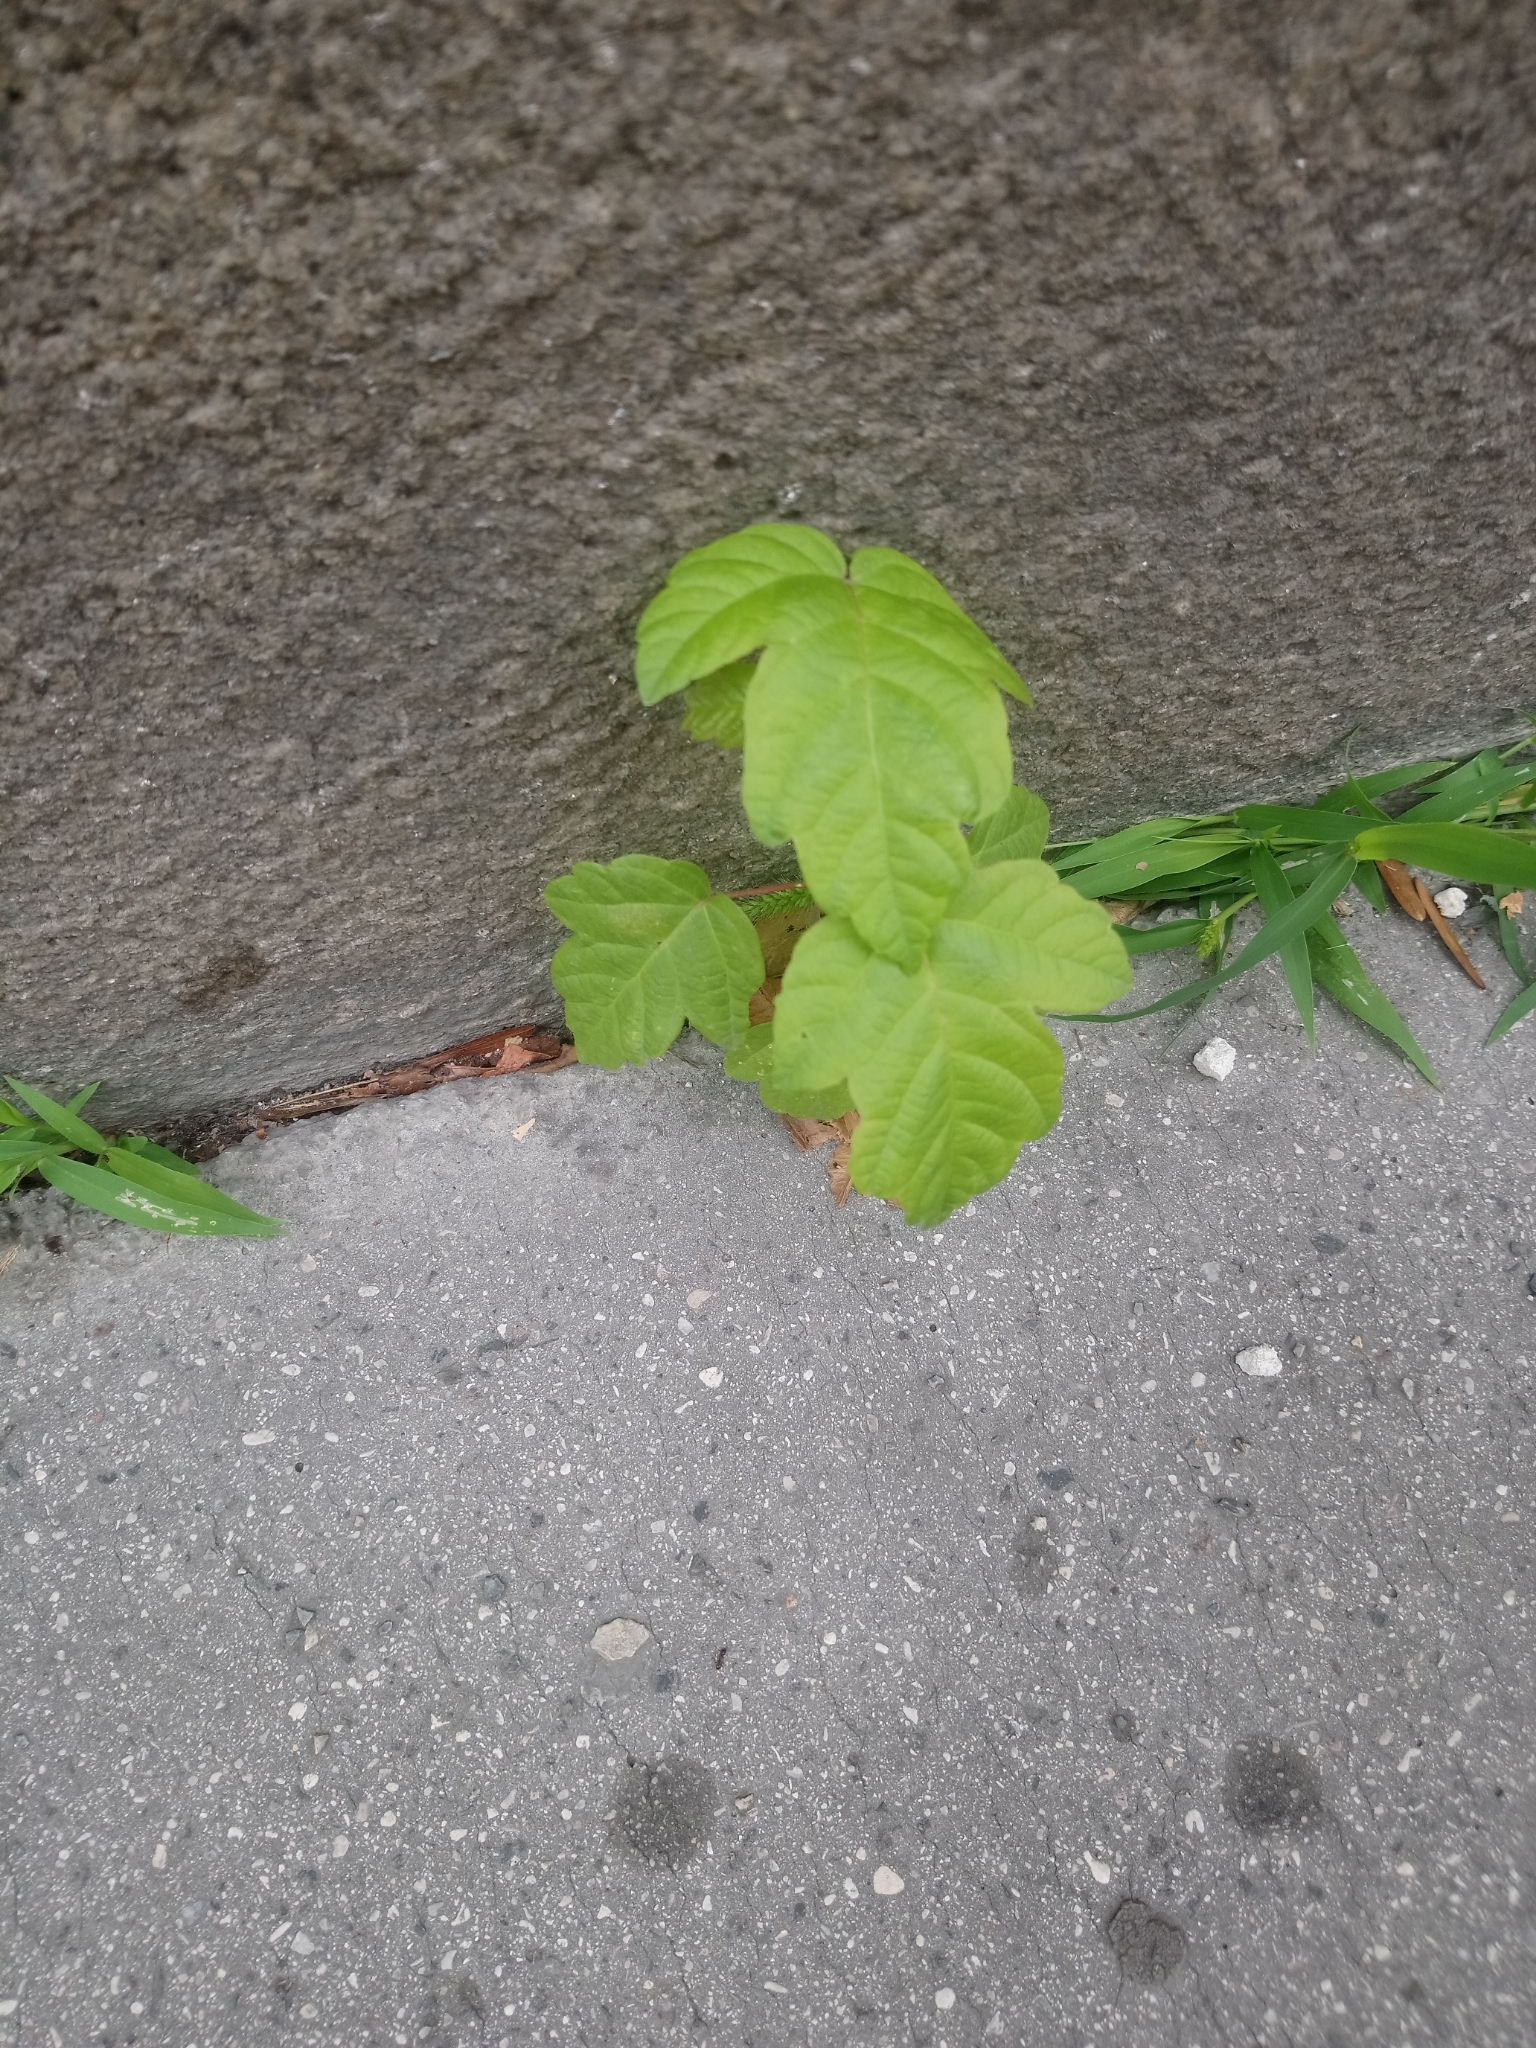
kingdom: Plantae
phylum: Tracheophyta
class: Magnoliopsida
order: Sapindales
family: Sapindaceae
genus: Acer
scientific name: Acer negundo
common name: Ashleaf maple
